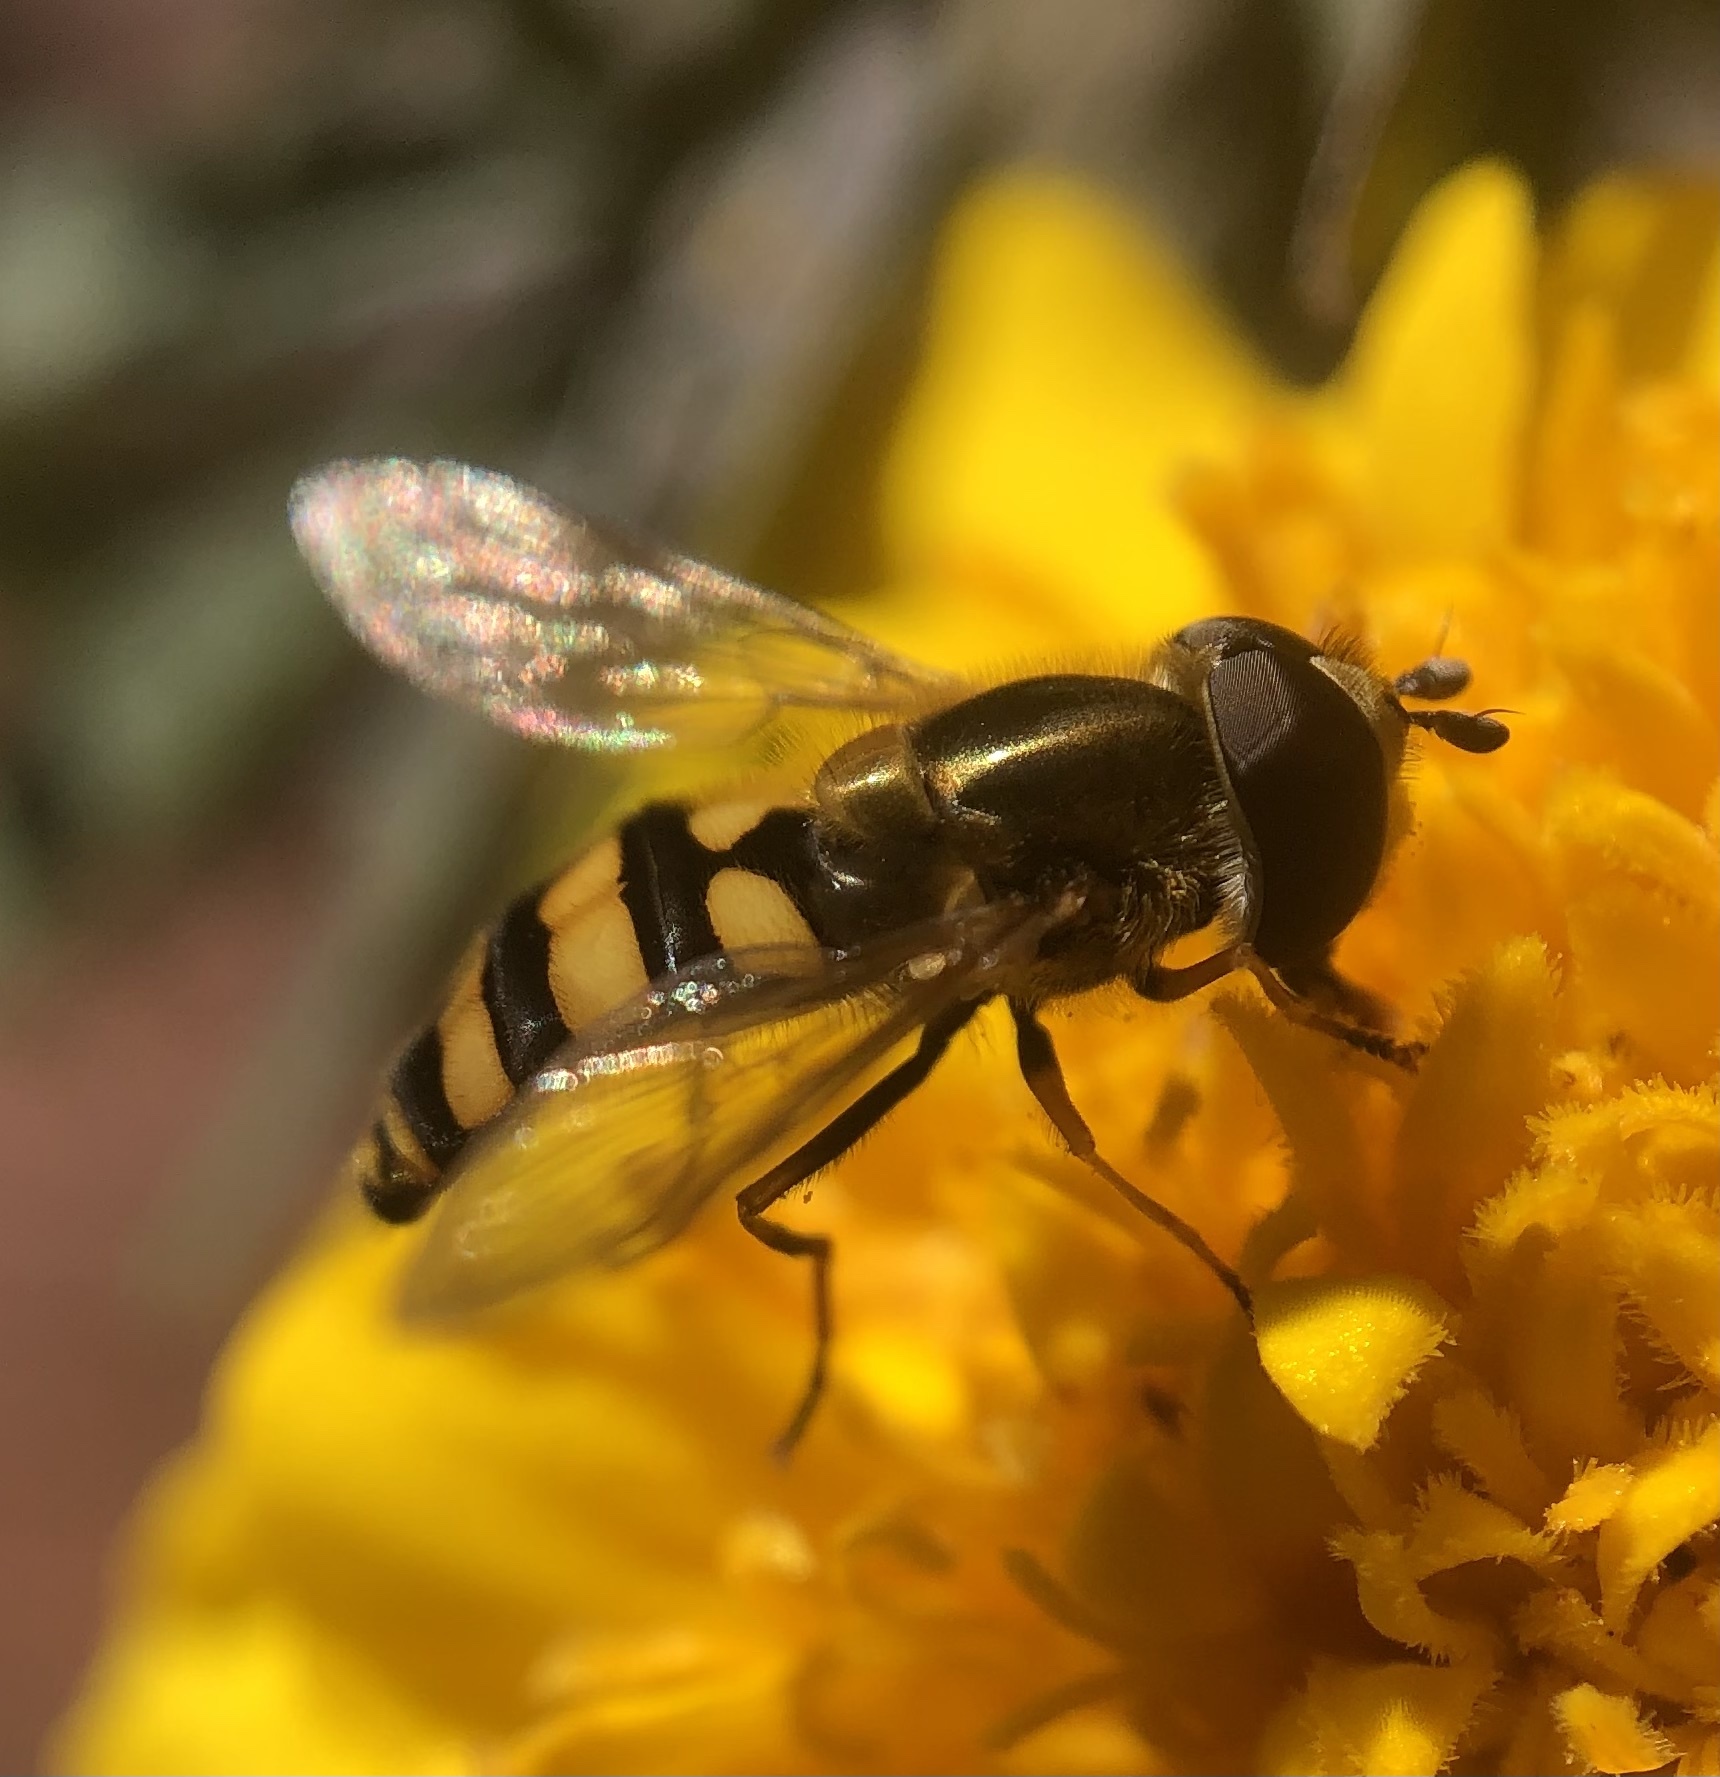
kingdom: Animalia
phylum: Arthropoda
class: Insecta
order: Diptera
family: Syrphidae
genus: Eupeodes
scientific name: Eupeodes
